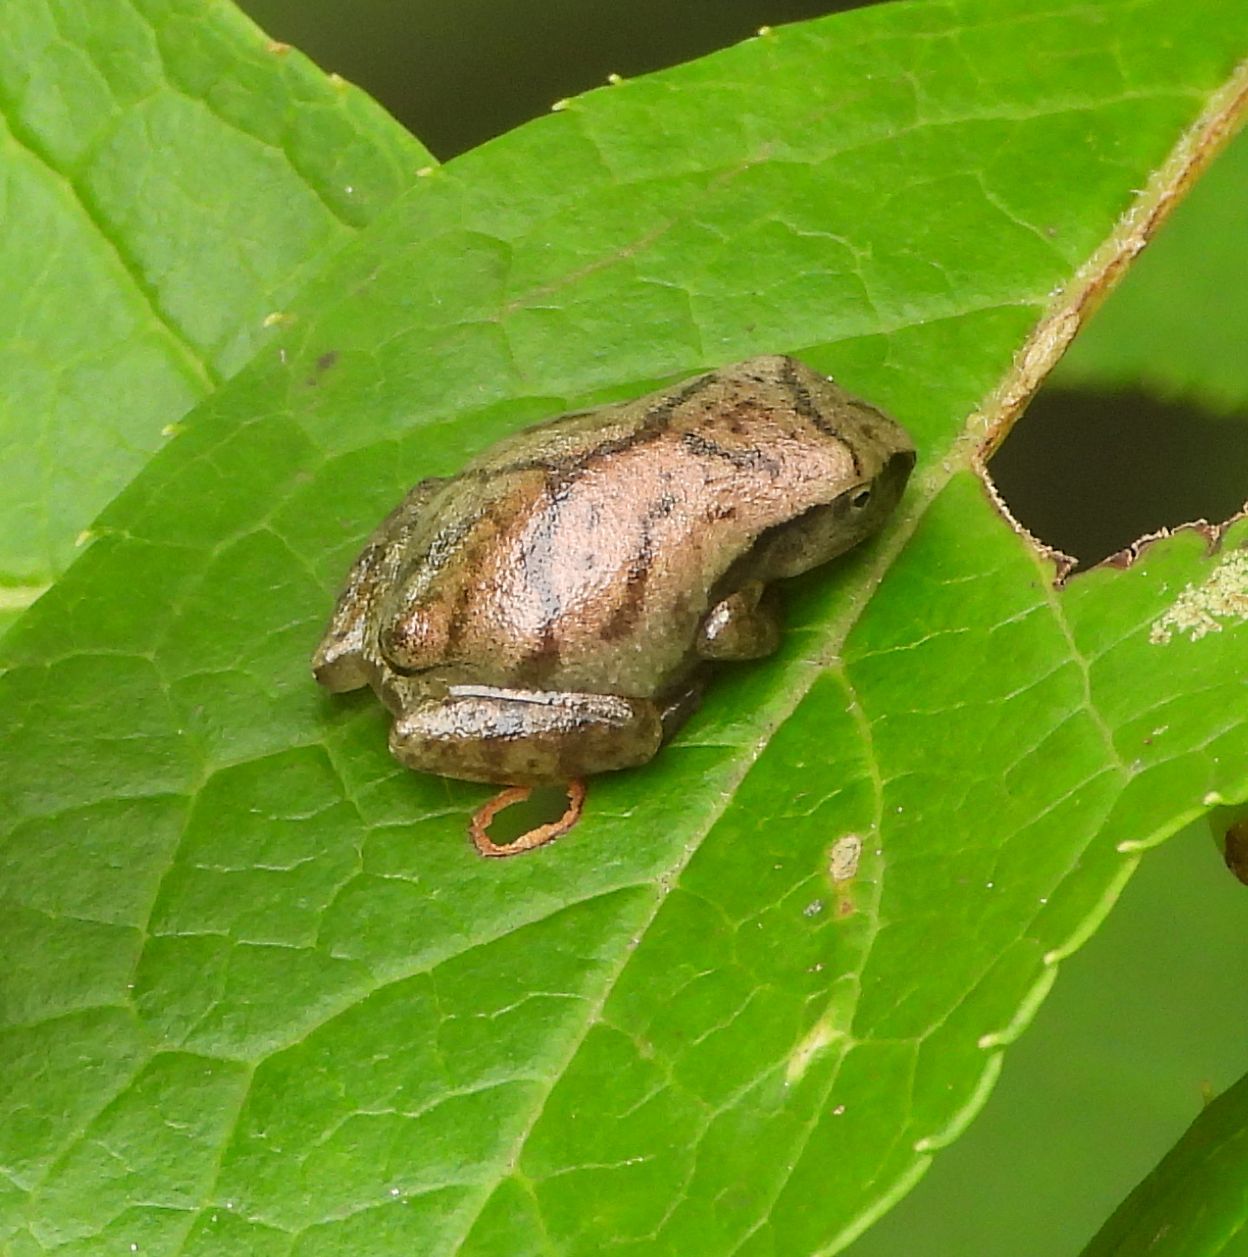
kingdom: Animalia
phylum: Chordata
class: Amphibia
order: Anura
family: Hylidae
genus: Pseudacris
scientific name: Pseudacris crucifer
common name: Spring peeper
